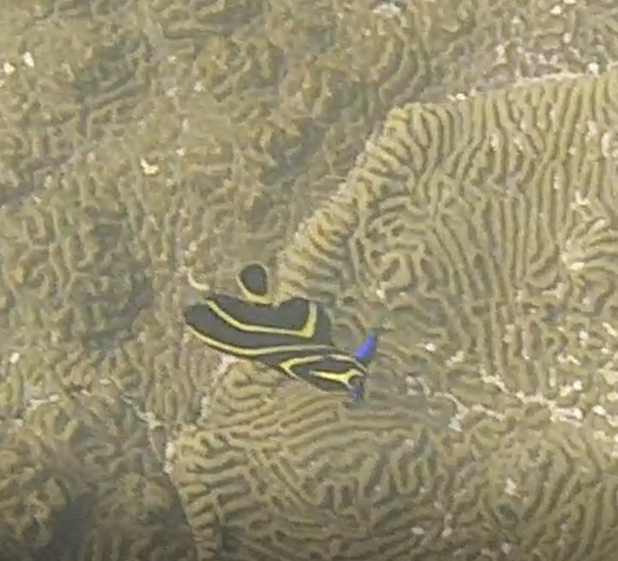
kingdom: Animalia
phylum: Chordata
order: Perciformes
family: Pomacanthidae
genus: Pomacanthus
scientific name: Pomacanthus paru
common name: French angelfish
